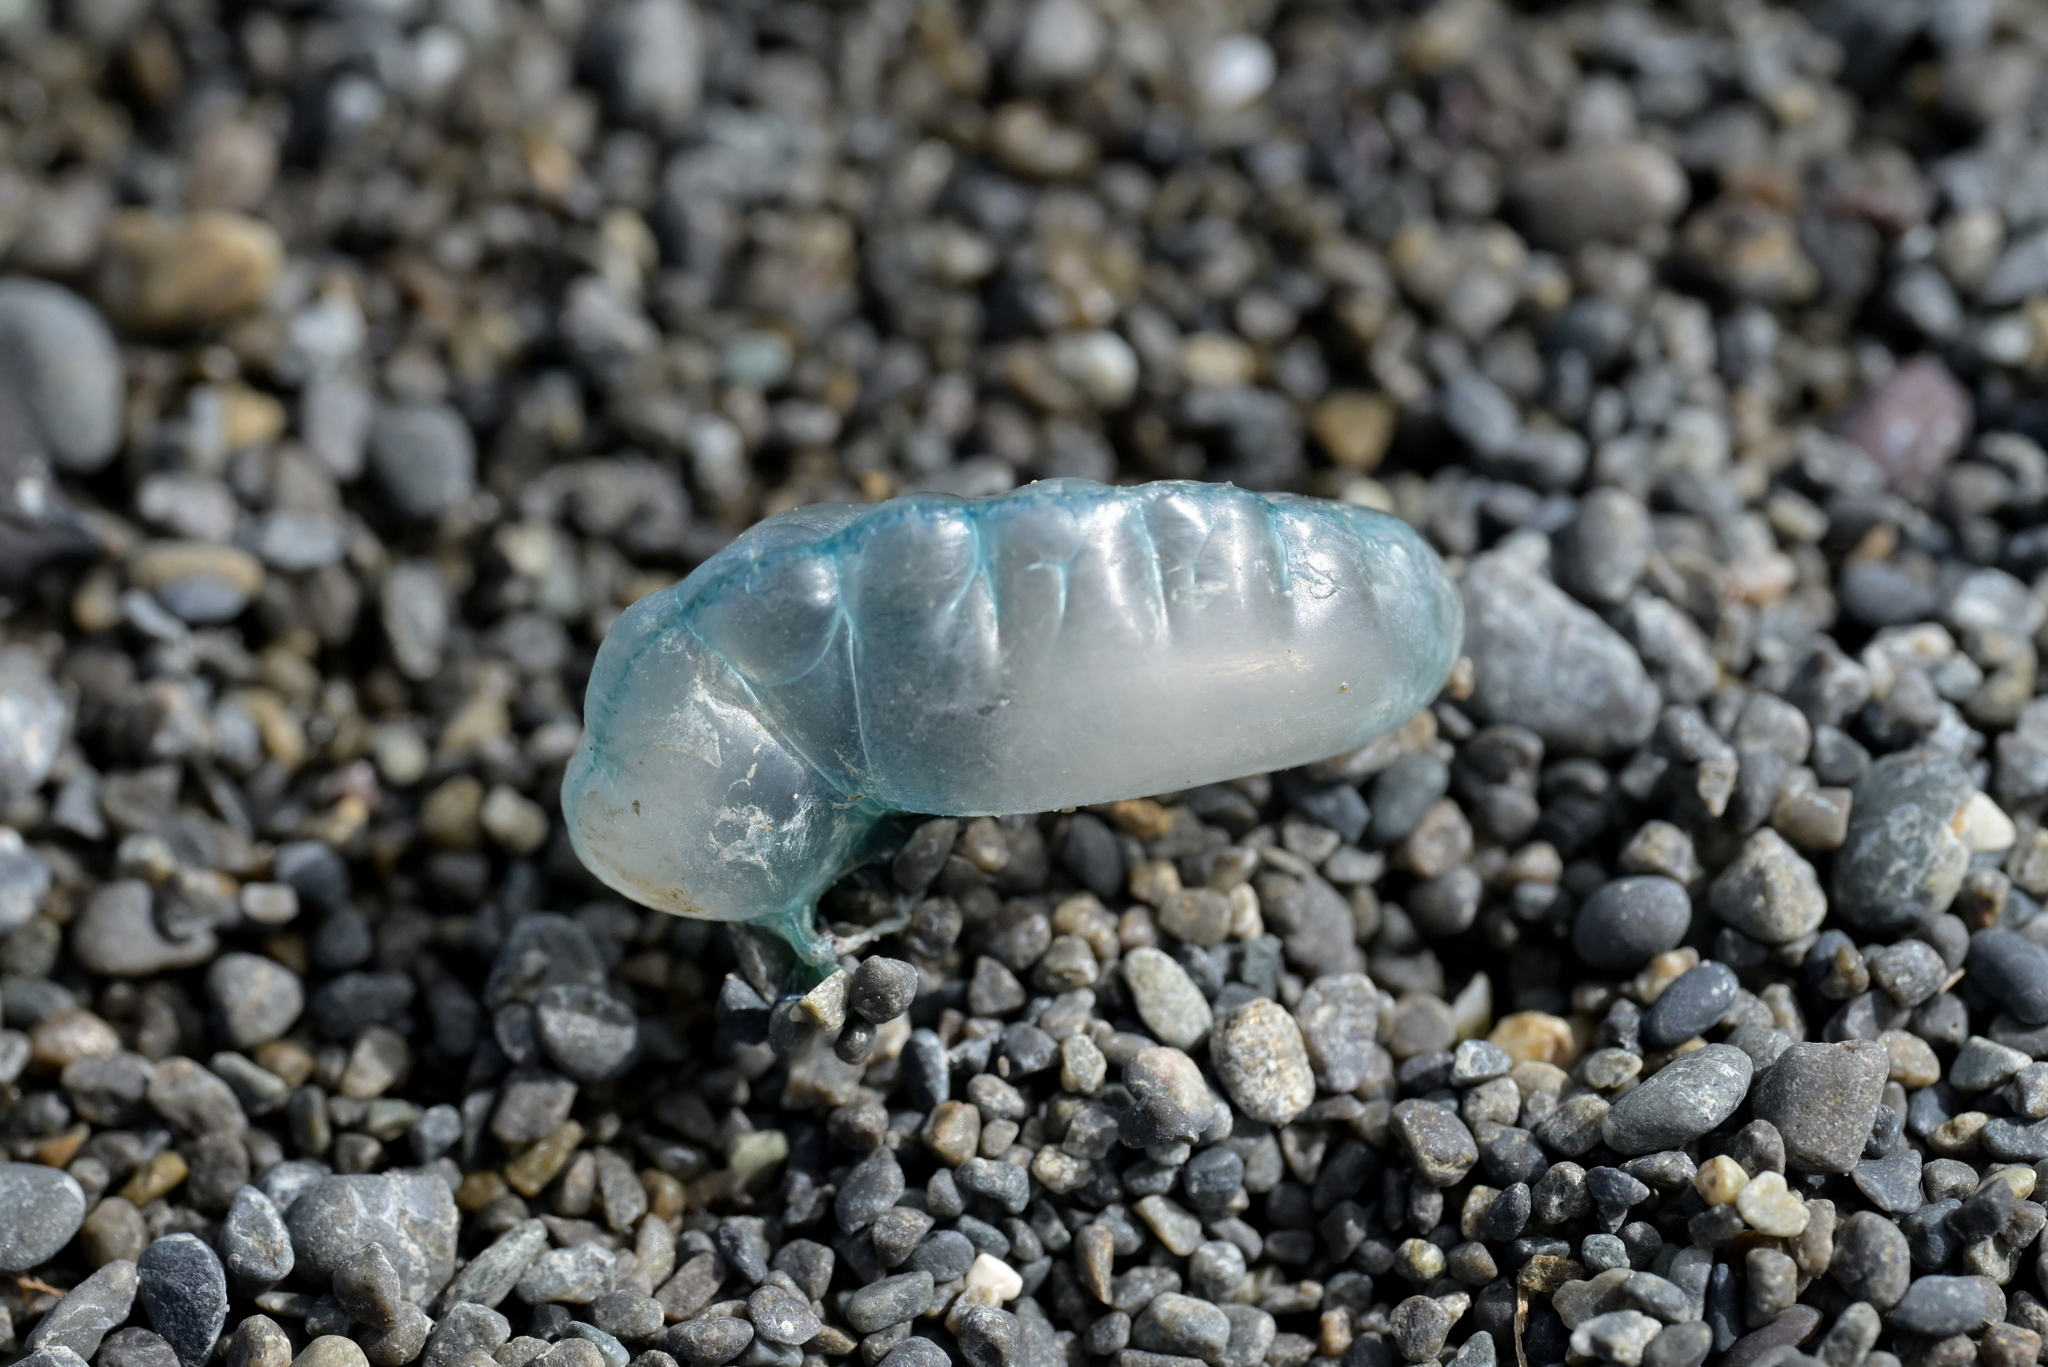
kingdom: Animalia
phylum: Cnidaria
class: Hydrozoa
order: Siphonophorae
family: Physaliidae
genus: Physalia
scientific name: Physalia physalis
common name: Portuguese man-of-war
